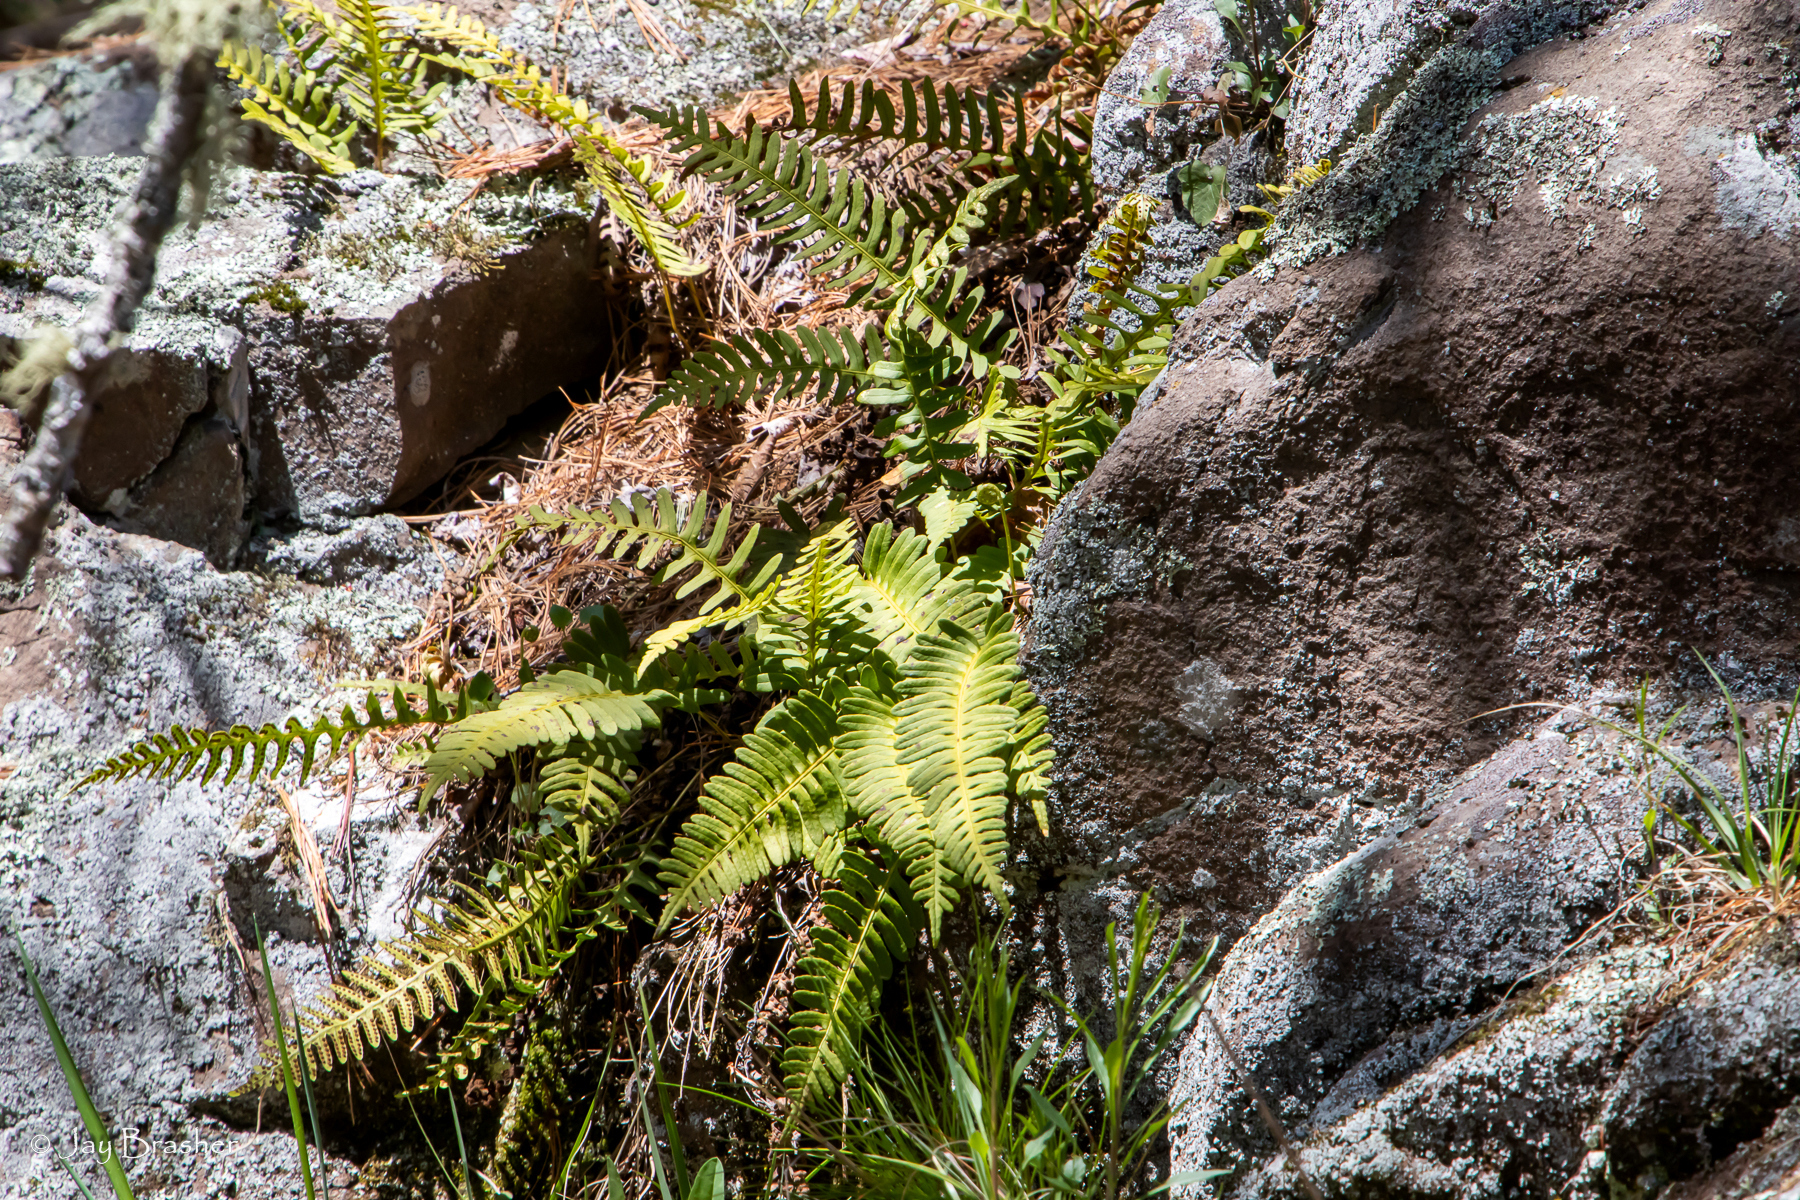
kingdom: Plantae
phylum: Tracheophyta
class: Polypodiopsida
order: Polypodiales
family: Polypodiaceae
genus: Polypodium
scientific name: Polypodium virginianum
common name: American wall fern
